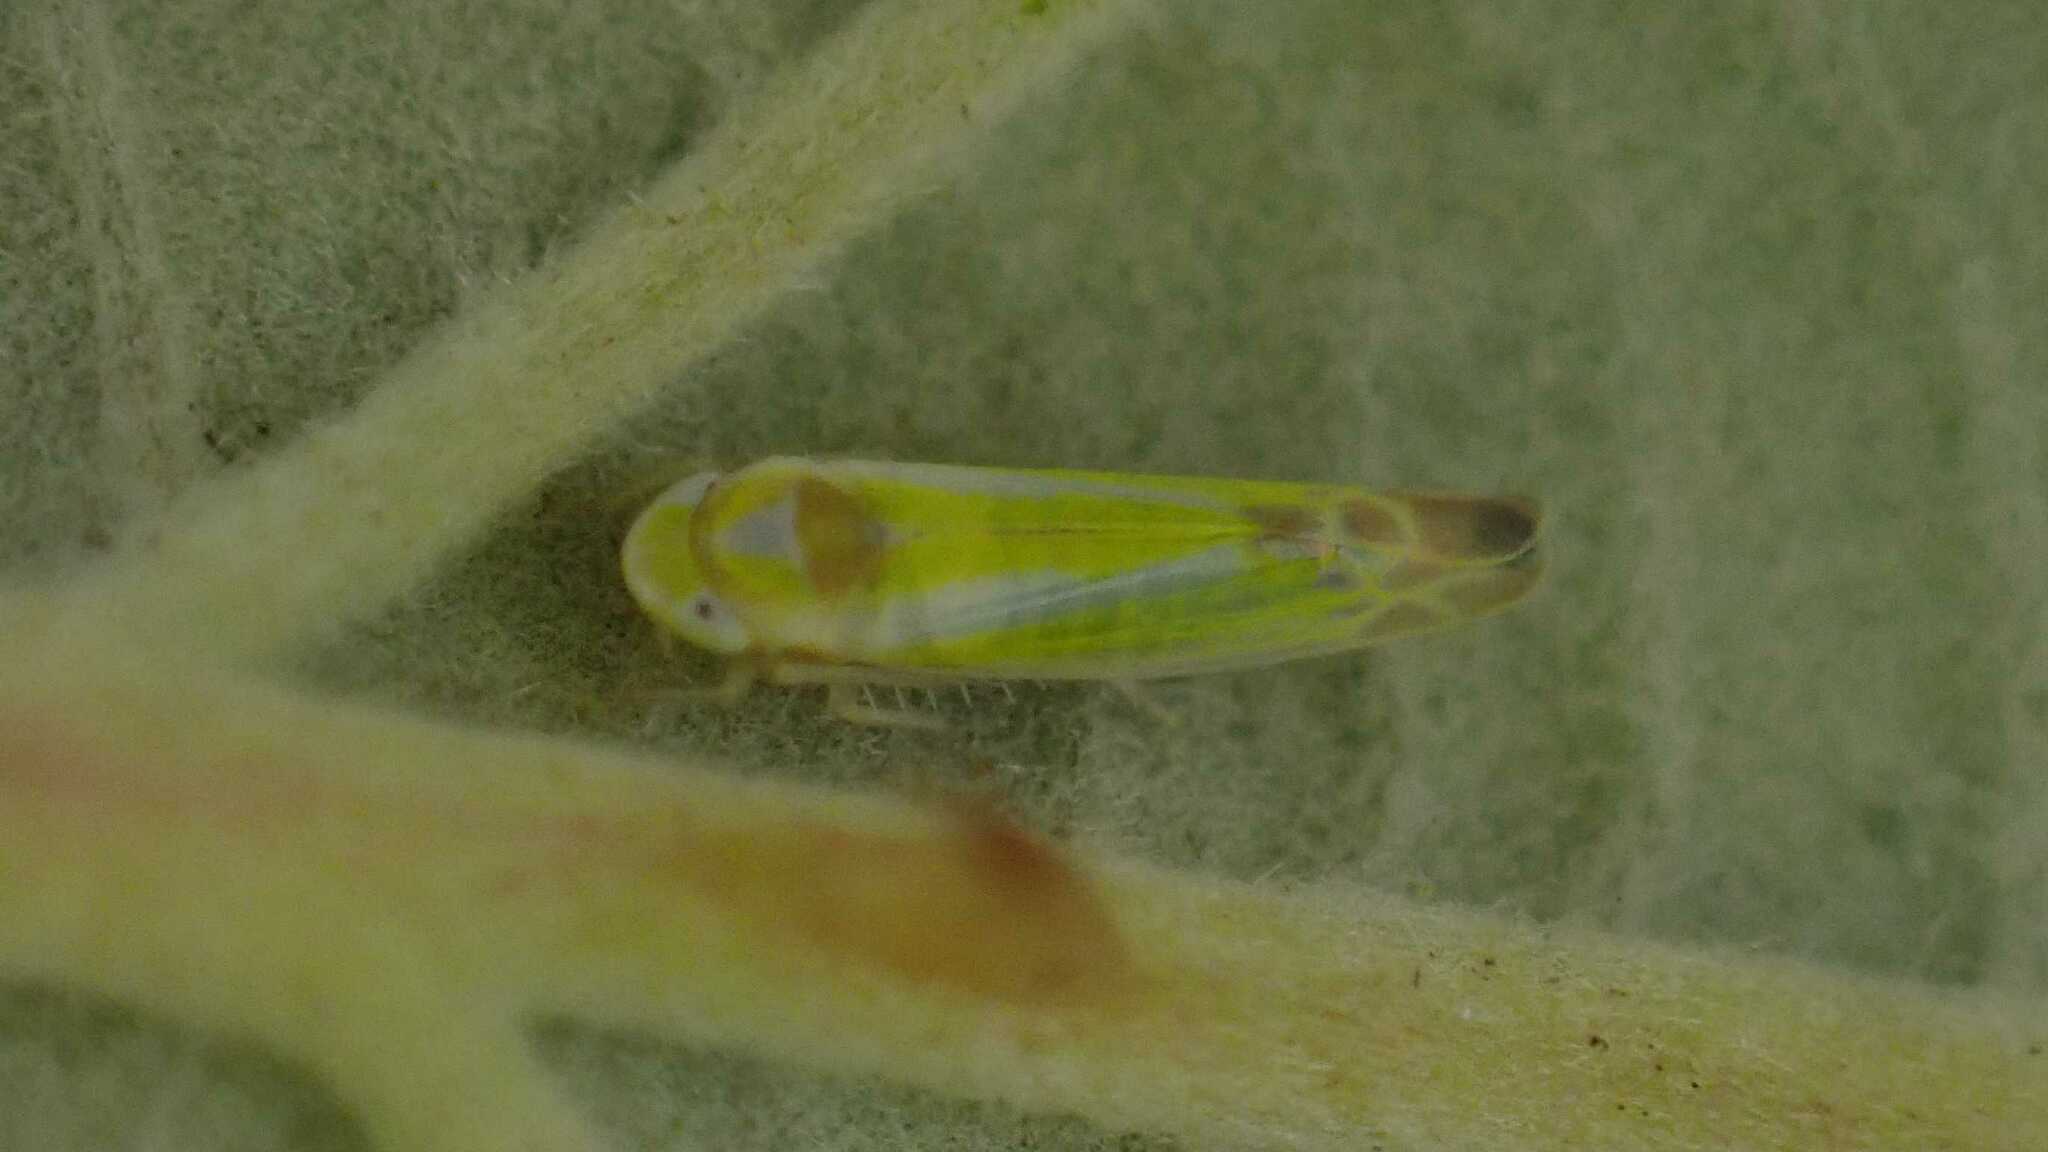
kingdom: Animalia
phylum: Arthropoda
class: Insecta
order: Hemiptera
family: Cicadellidae
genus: Lindbergina
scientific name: Lindbergina aurovittata
